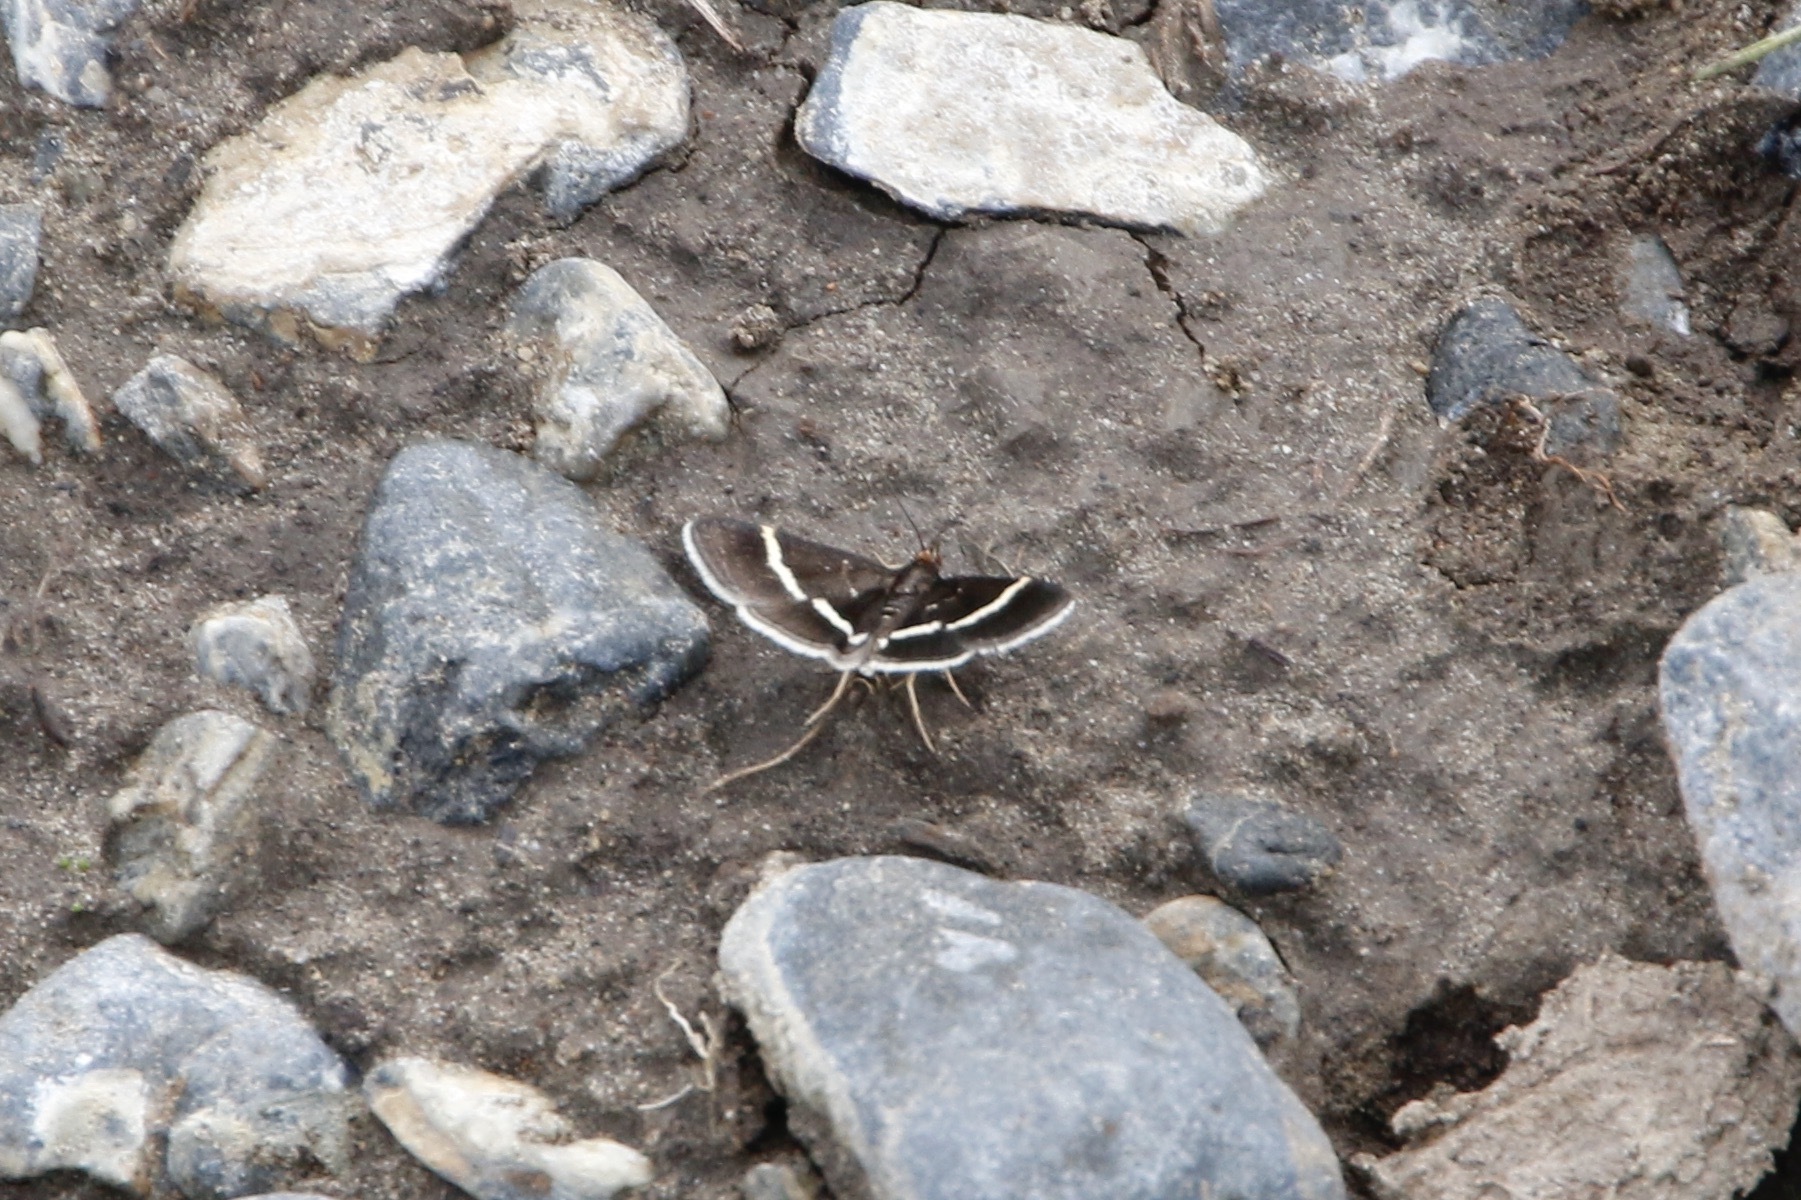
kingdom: Animalia
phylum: Arthropoda
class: Insecta
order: Lepidoptera
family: Crambidae
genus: Pyrausta
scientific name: Pyrausta cingulata
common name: Silver-barred sable
